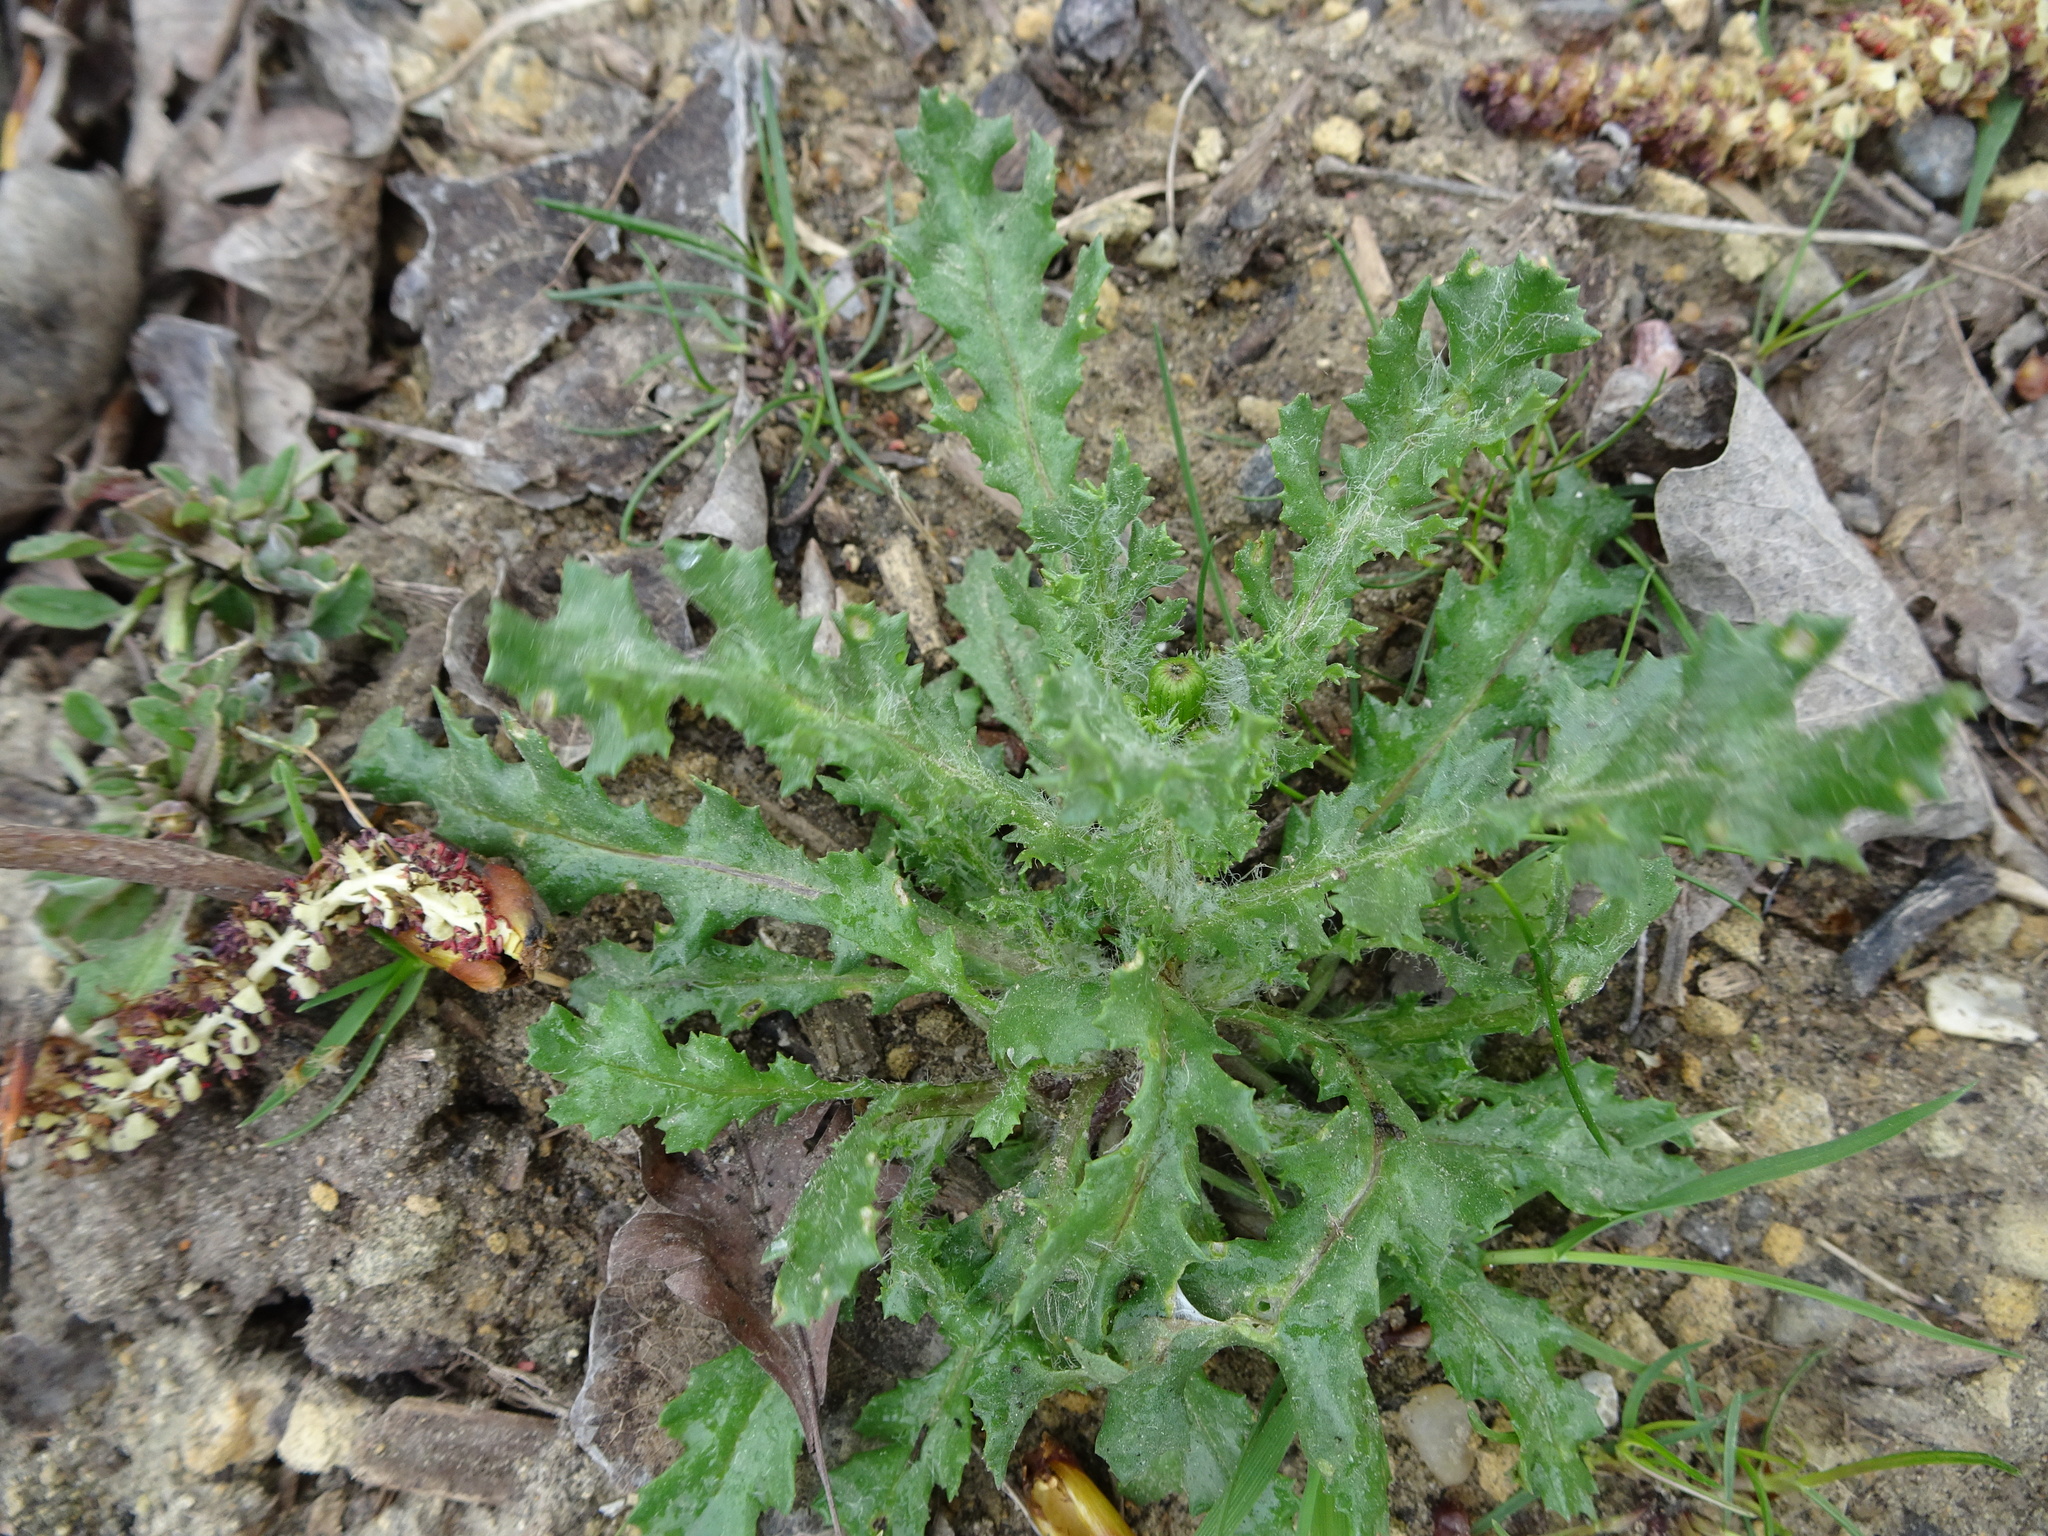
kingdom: Plantae
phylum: Tracheophyta
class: Magnoliopsida
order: Asterales
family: Asteraceae
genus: Senecio
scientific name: Senecio vulgaris
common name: Old-man-in-the-spring
